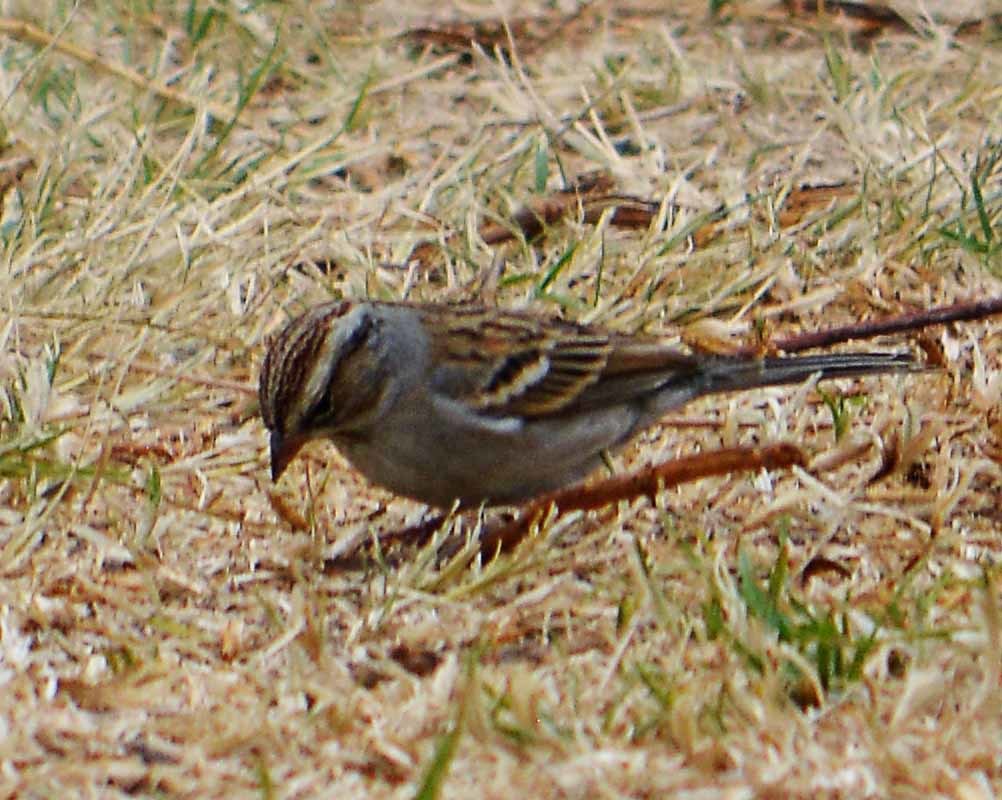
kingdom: Animalia
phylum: Chordata
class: Aves
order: Passeriformes
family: Passerellidae
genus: Spizella
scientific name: Spizella passerina
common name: Chipping sparrow
